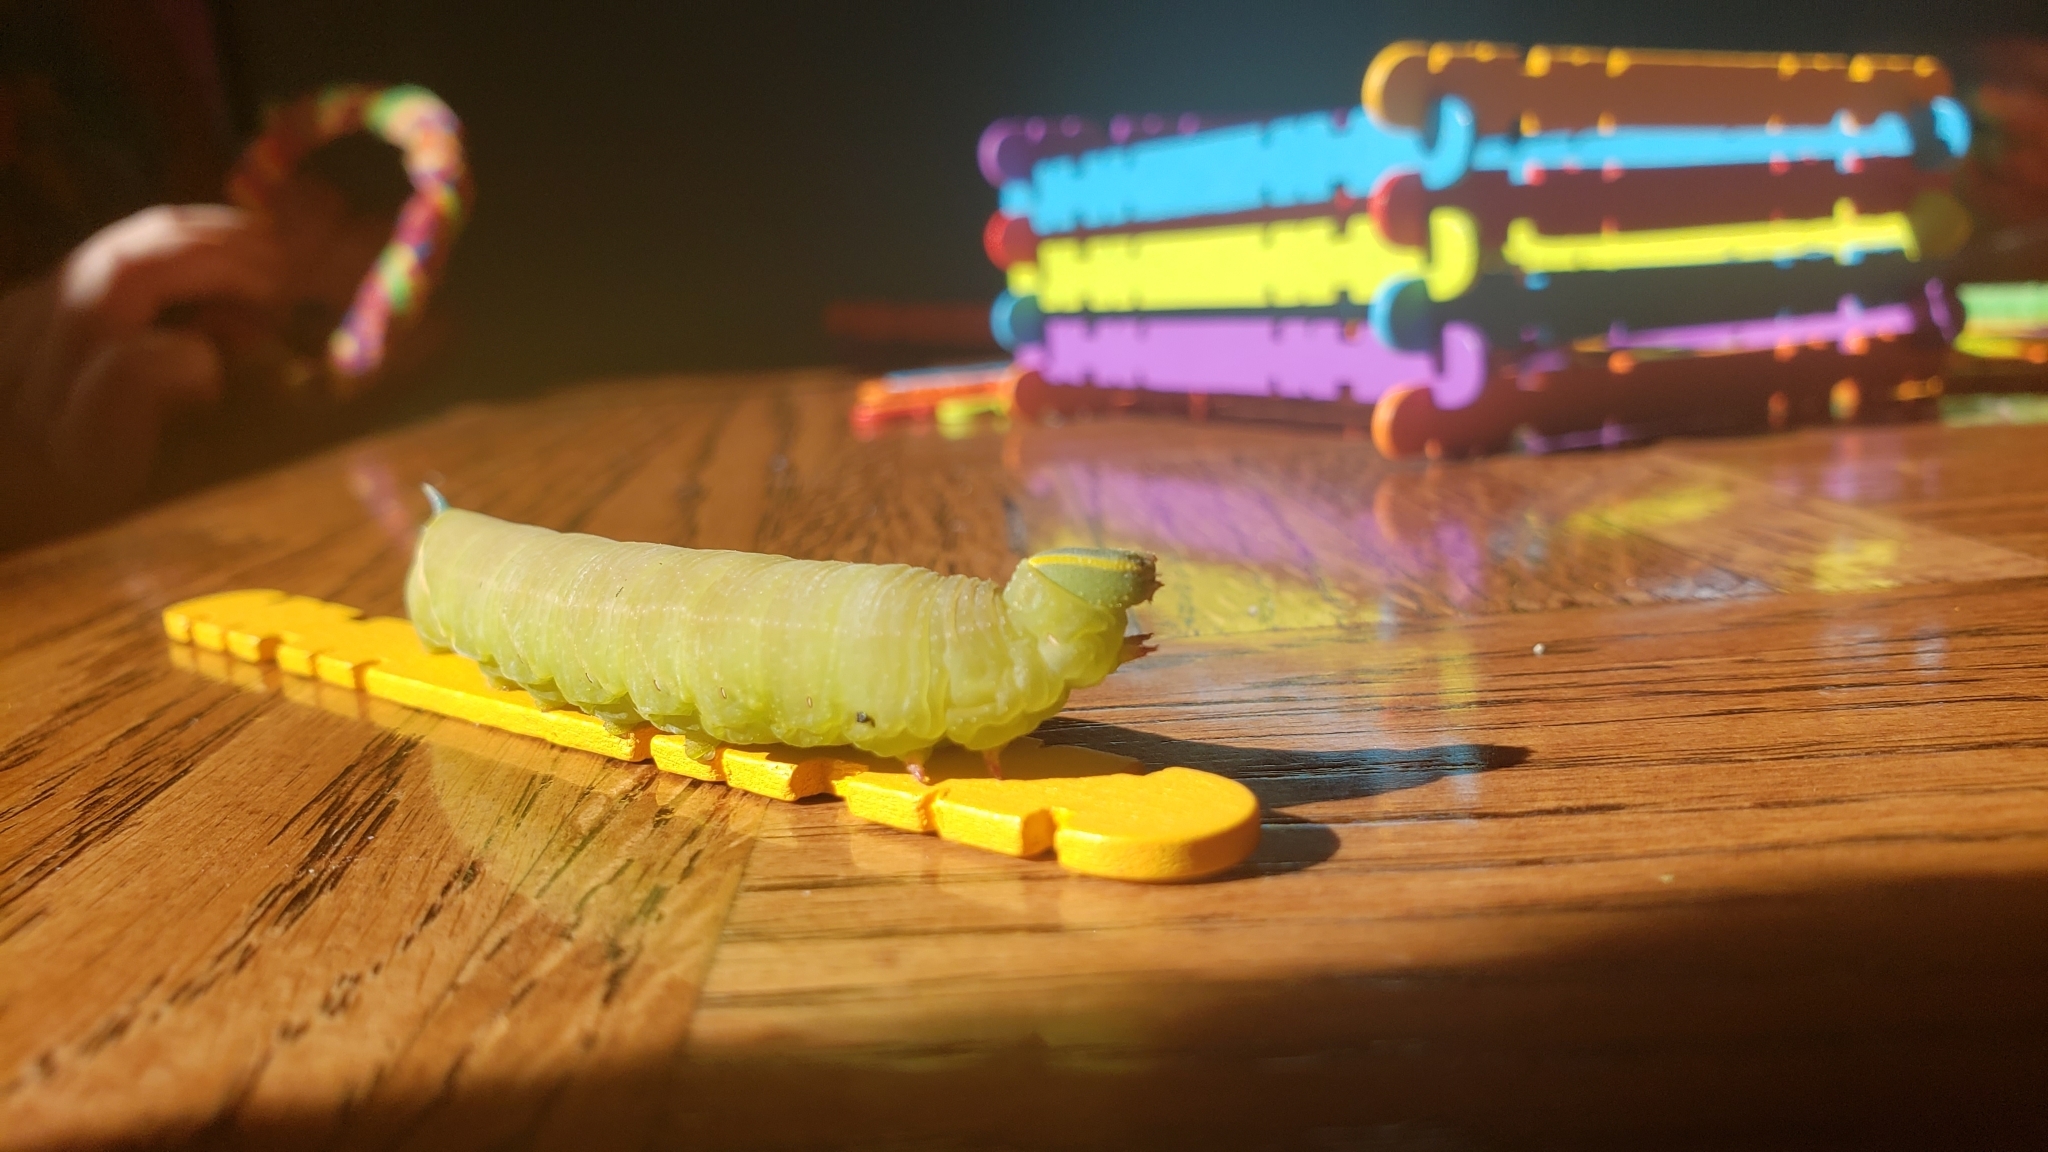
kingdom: Animalia
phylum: Arthropoda
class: Insecta
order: Lepidoptera
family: Sphingidae
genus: Smerinthus
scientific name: Smerinthus cerisyi
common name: Cerisy's sphinx moth
